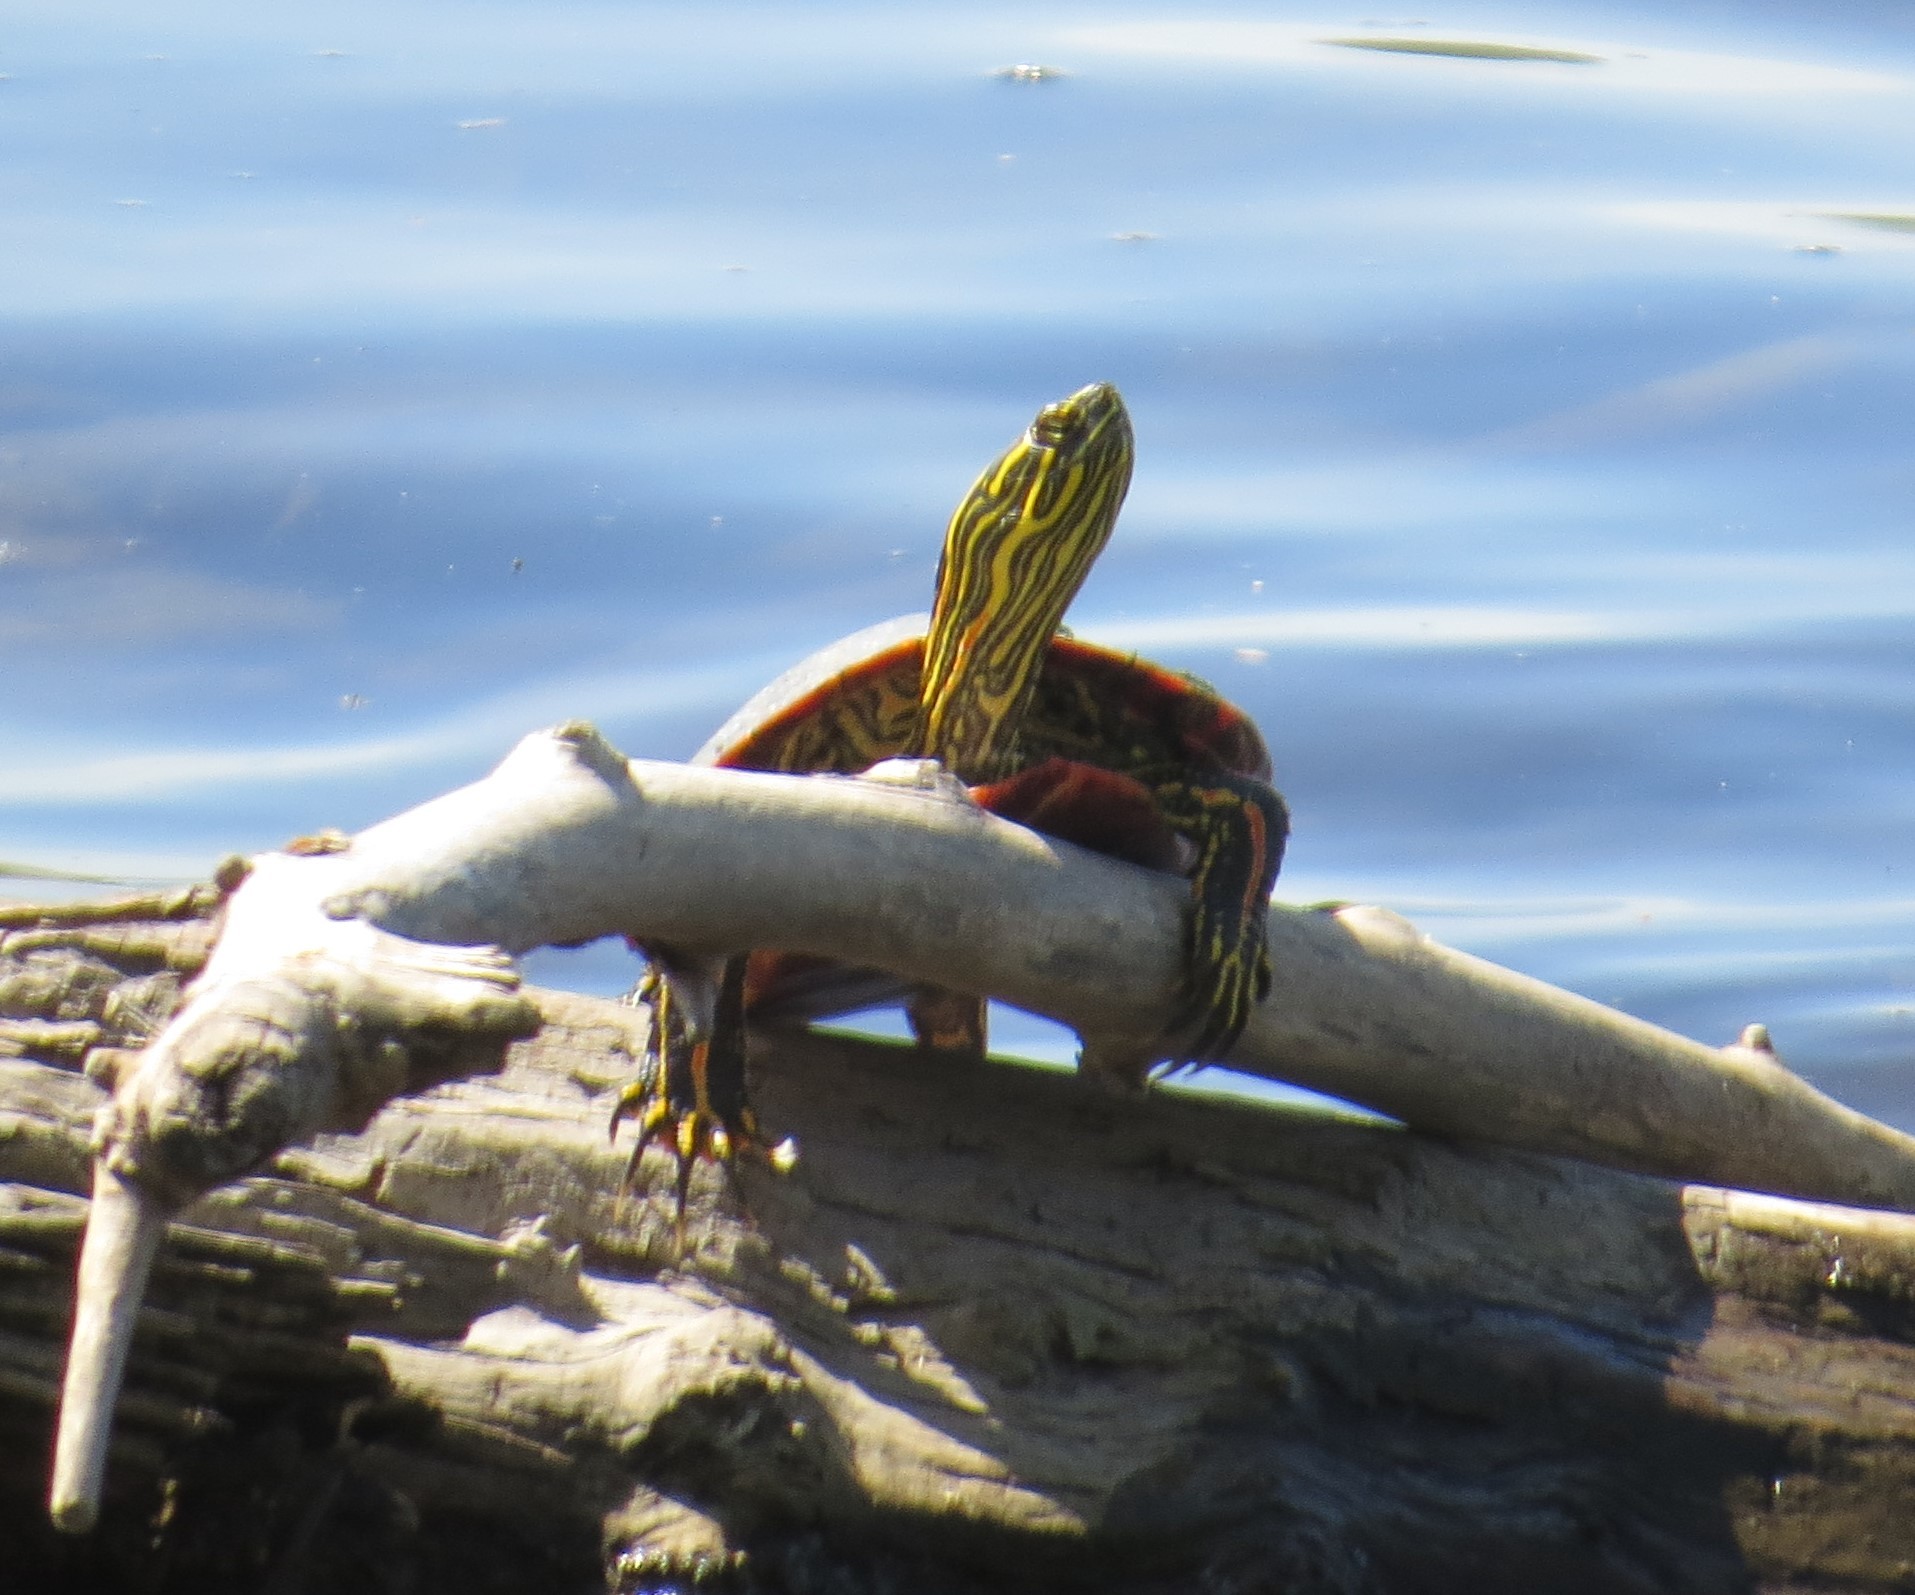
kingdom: Animalia
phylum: Chordata
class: Testudines
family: Emydidae
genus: Chrysemys
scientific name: Chrysemys picta
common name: Painted turtle
